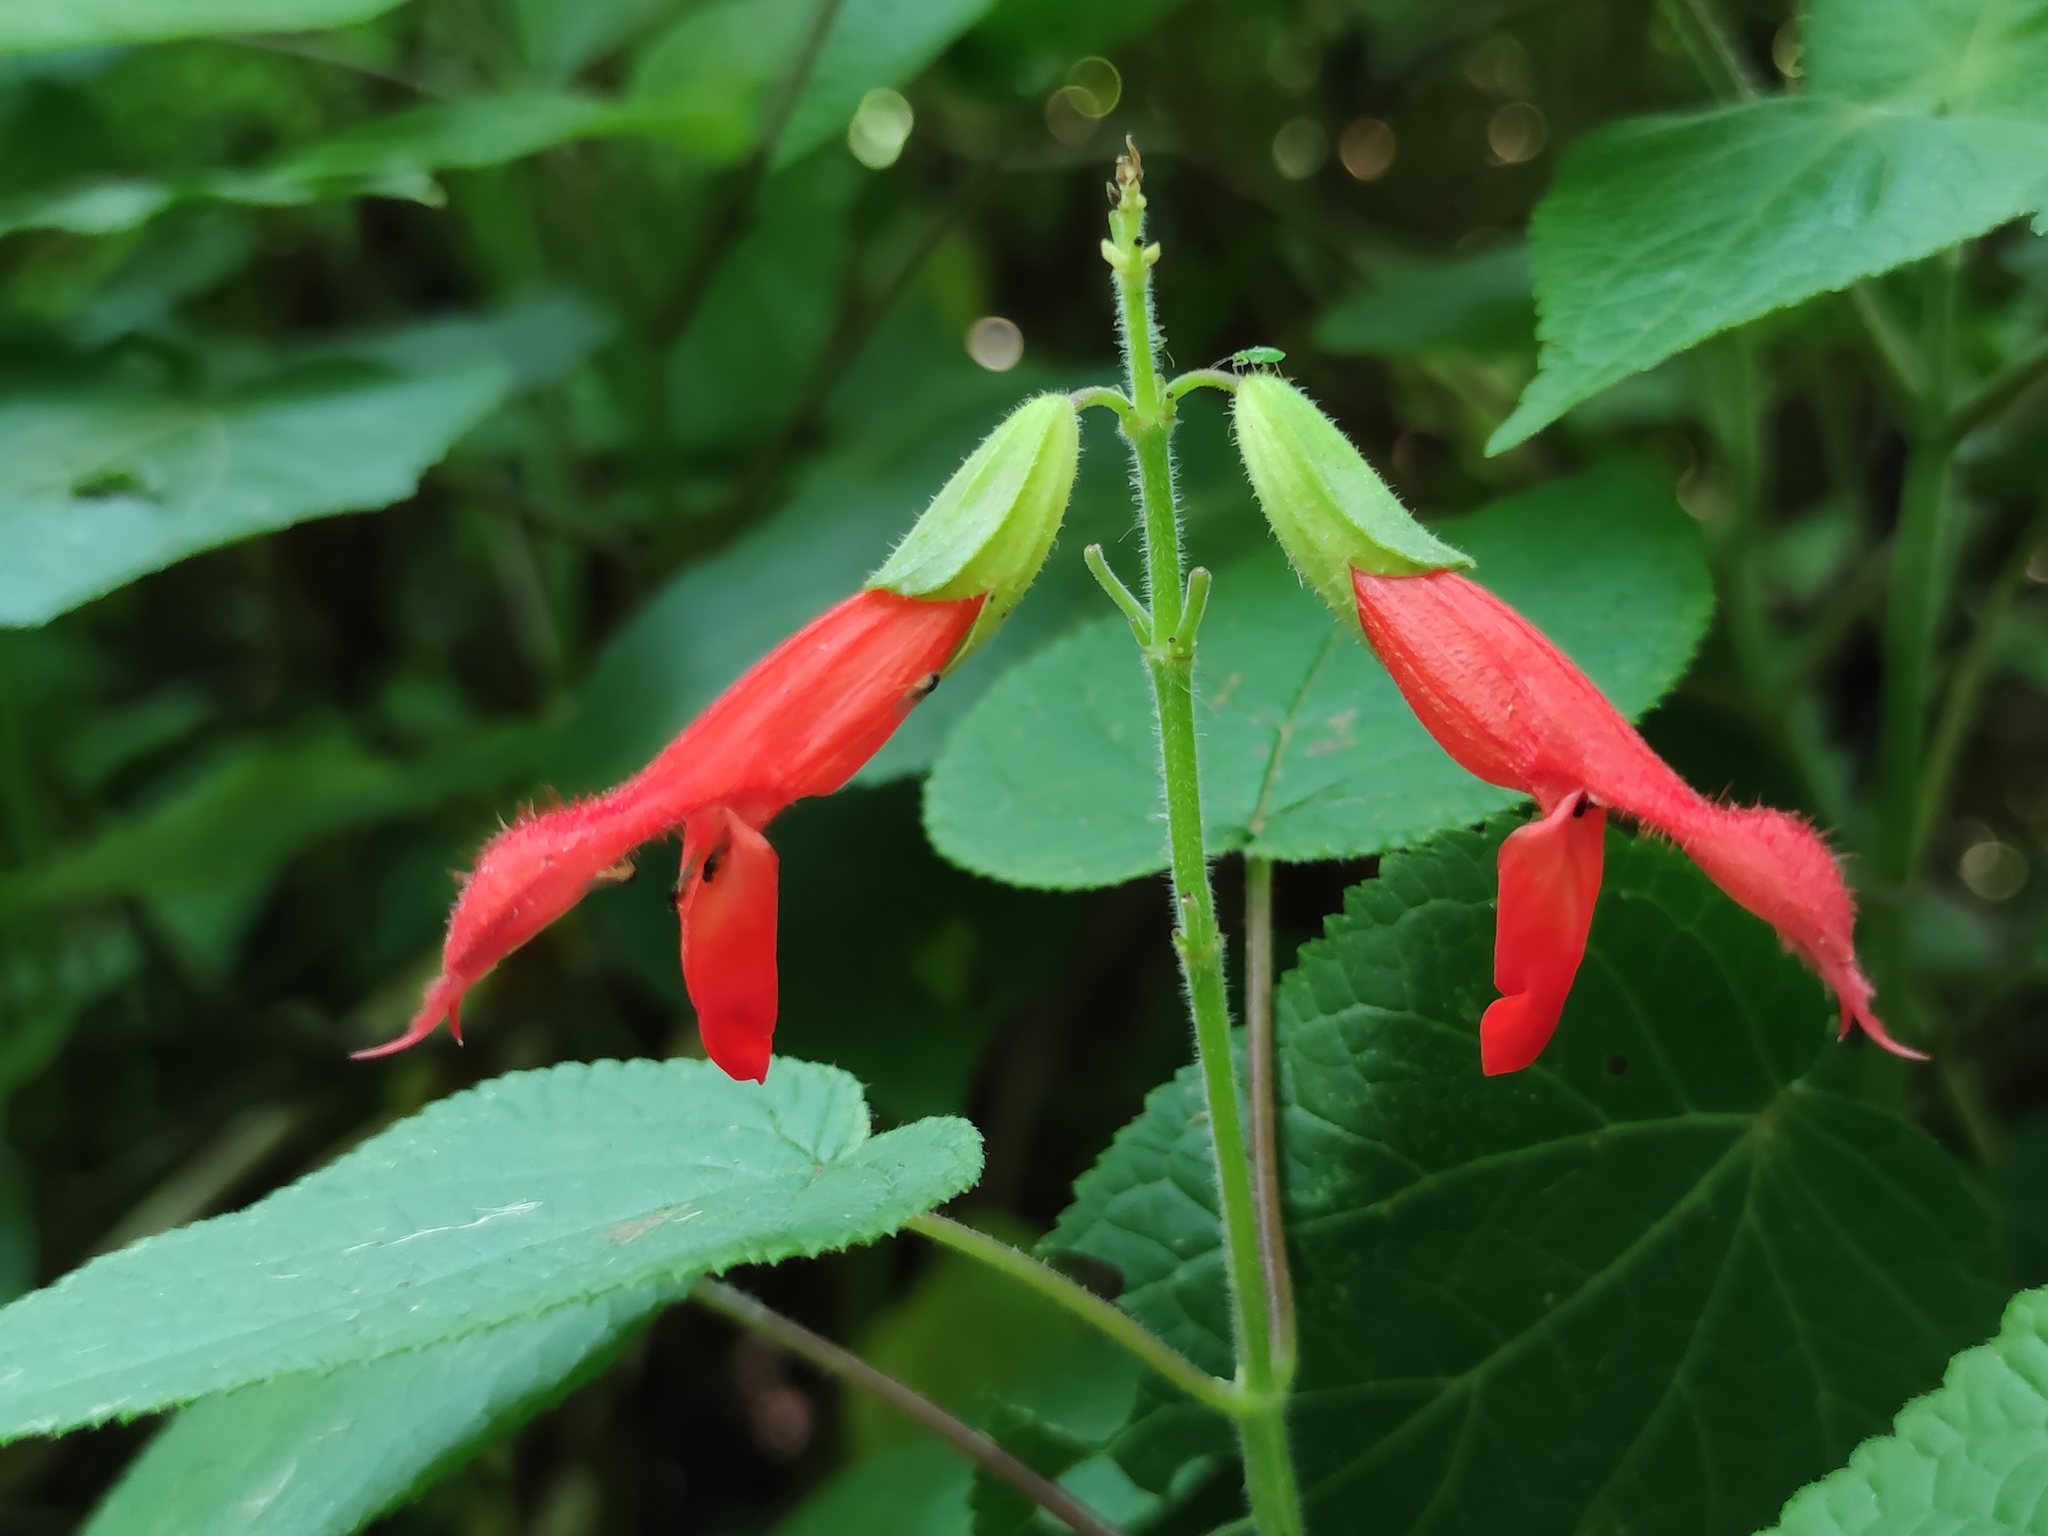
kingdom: Plantae
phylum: Tracheophyta
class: Magnoliopsida
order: Lamiales
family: Lamiaceae
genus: Salvia
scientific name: Salvia gesneriiflora
